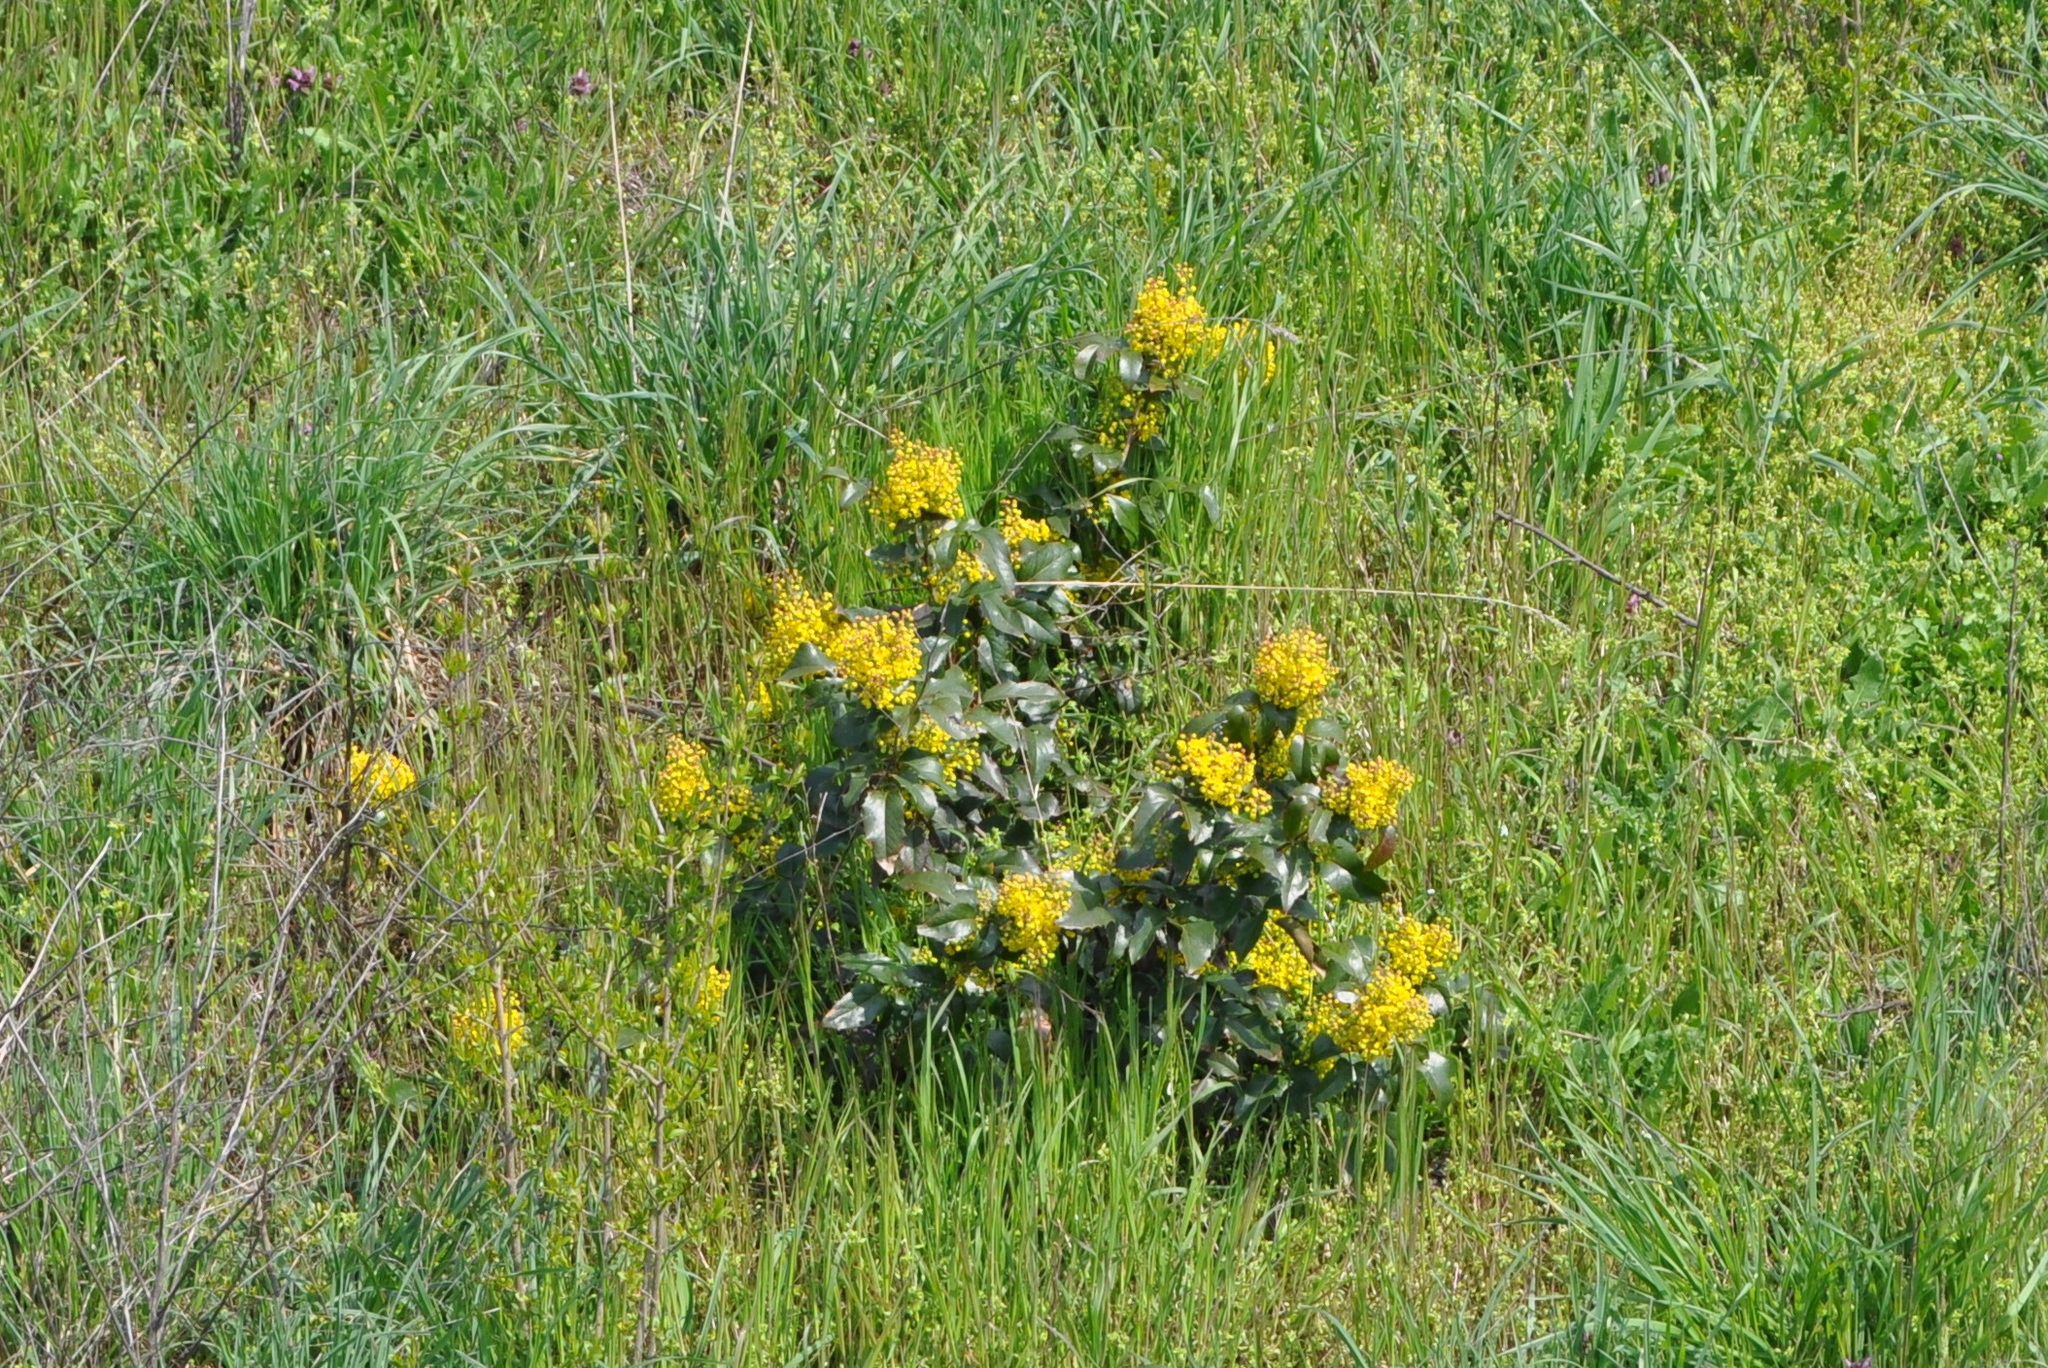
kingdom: Plantae
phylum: Tracheophyta
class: Magnoliopsida
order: Ranunculales
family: Berberidaceae
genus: Mahonia
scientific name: Mahonia aquifolium
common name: Oregon-grape
